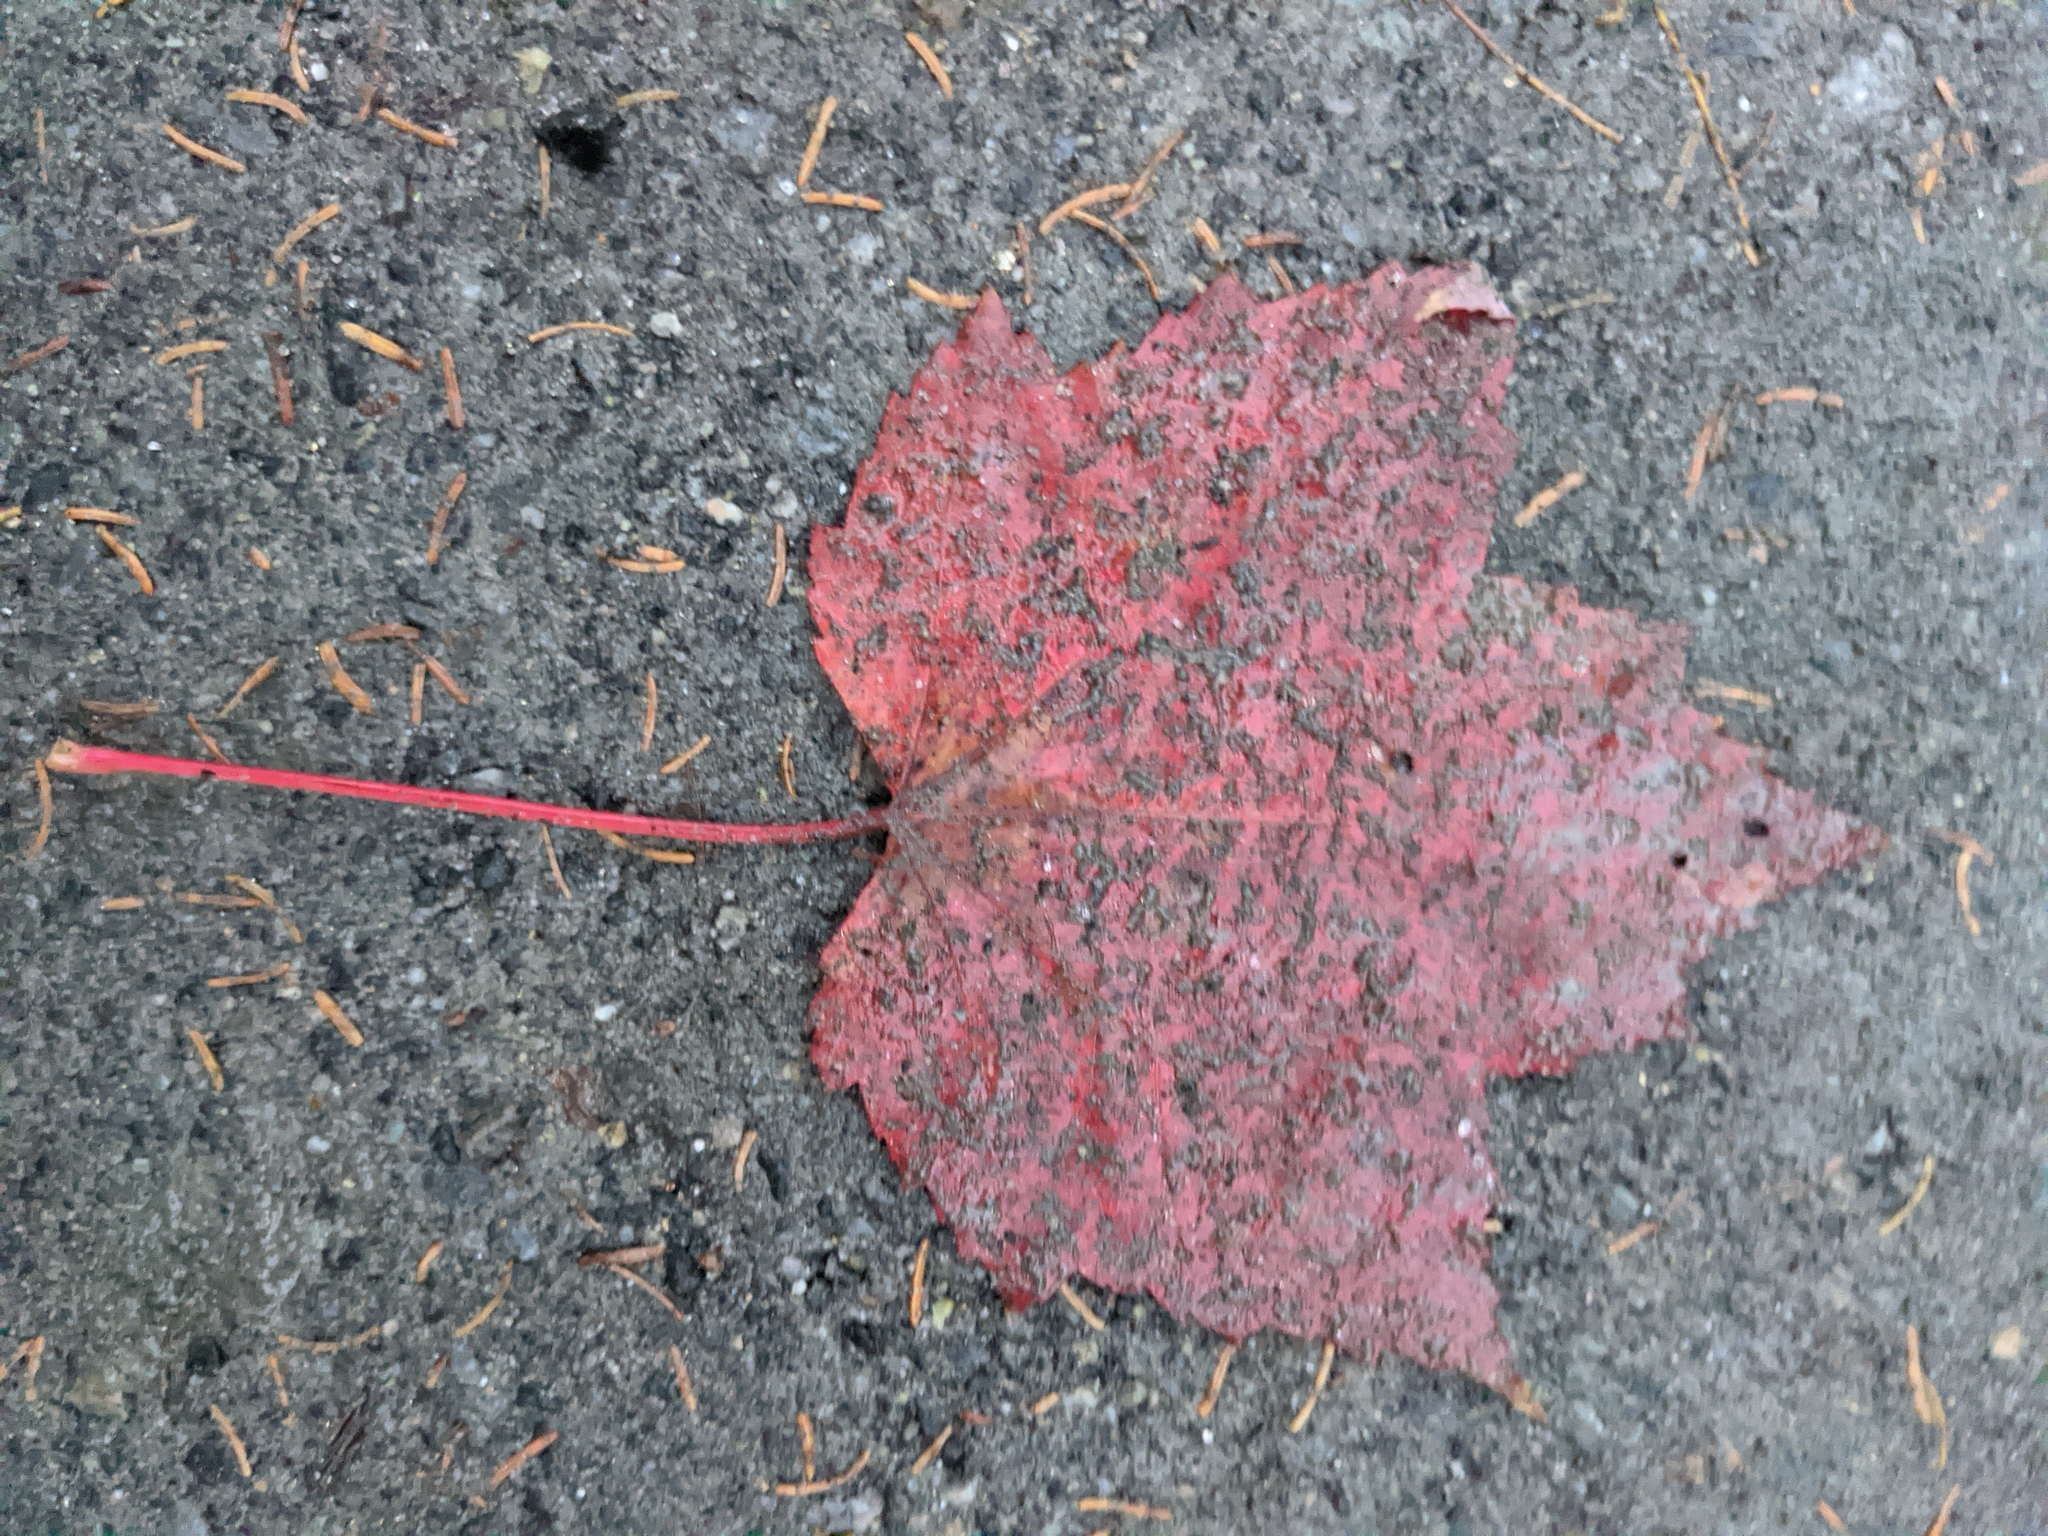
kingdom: Plantae
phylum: Tracheophyta
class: Magnoliopsida
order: Sapindales
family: Sapindaceae
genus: Acer
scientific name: Acer rubrum
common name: Red maple
